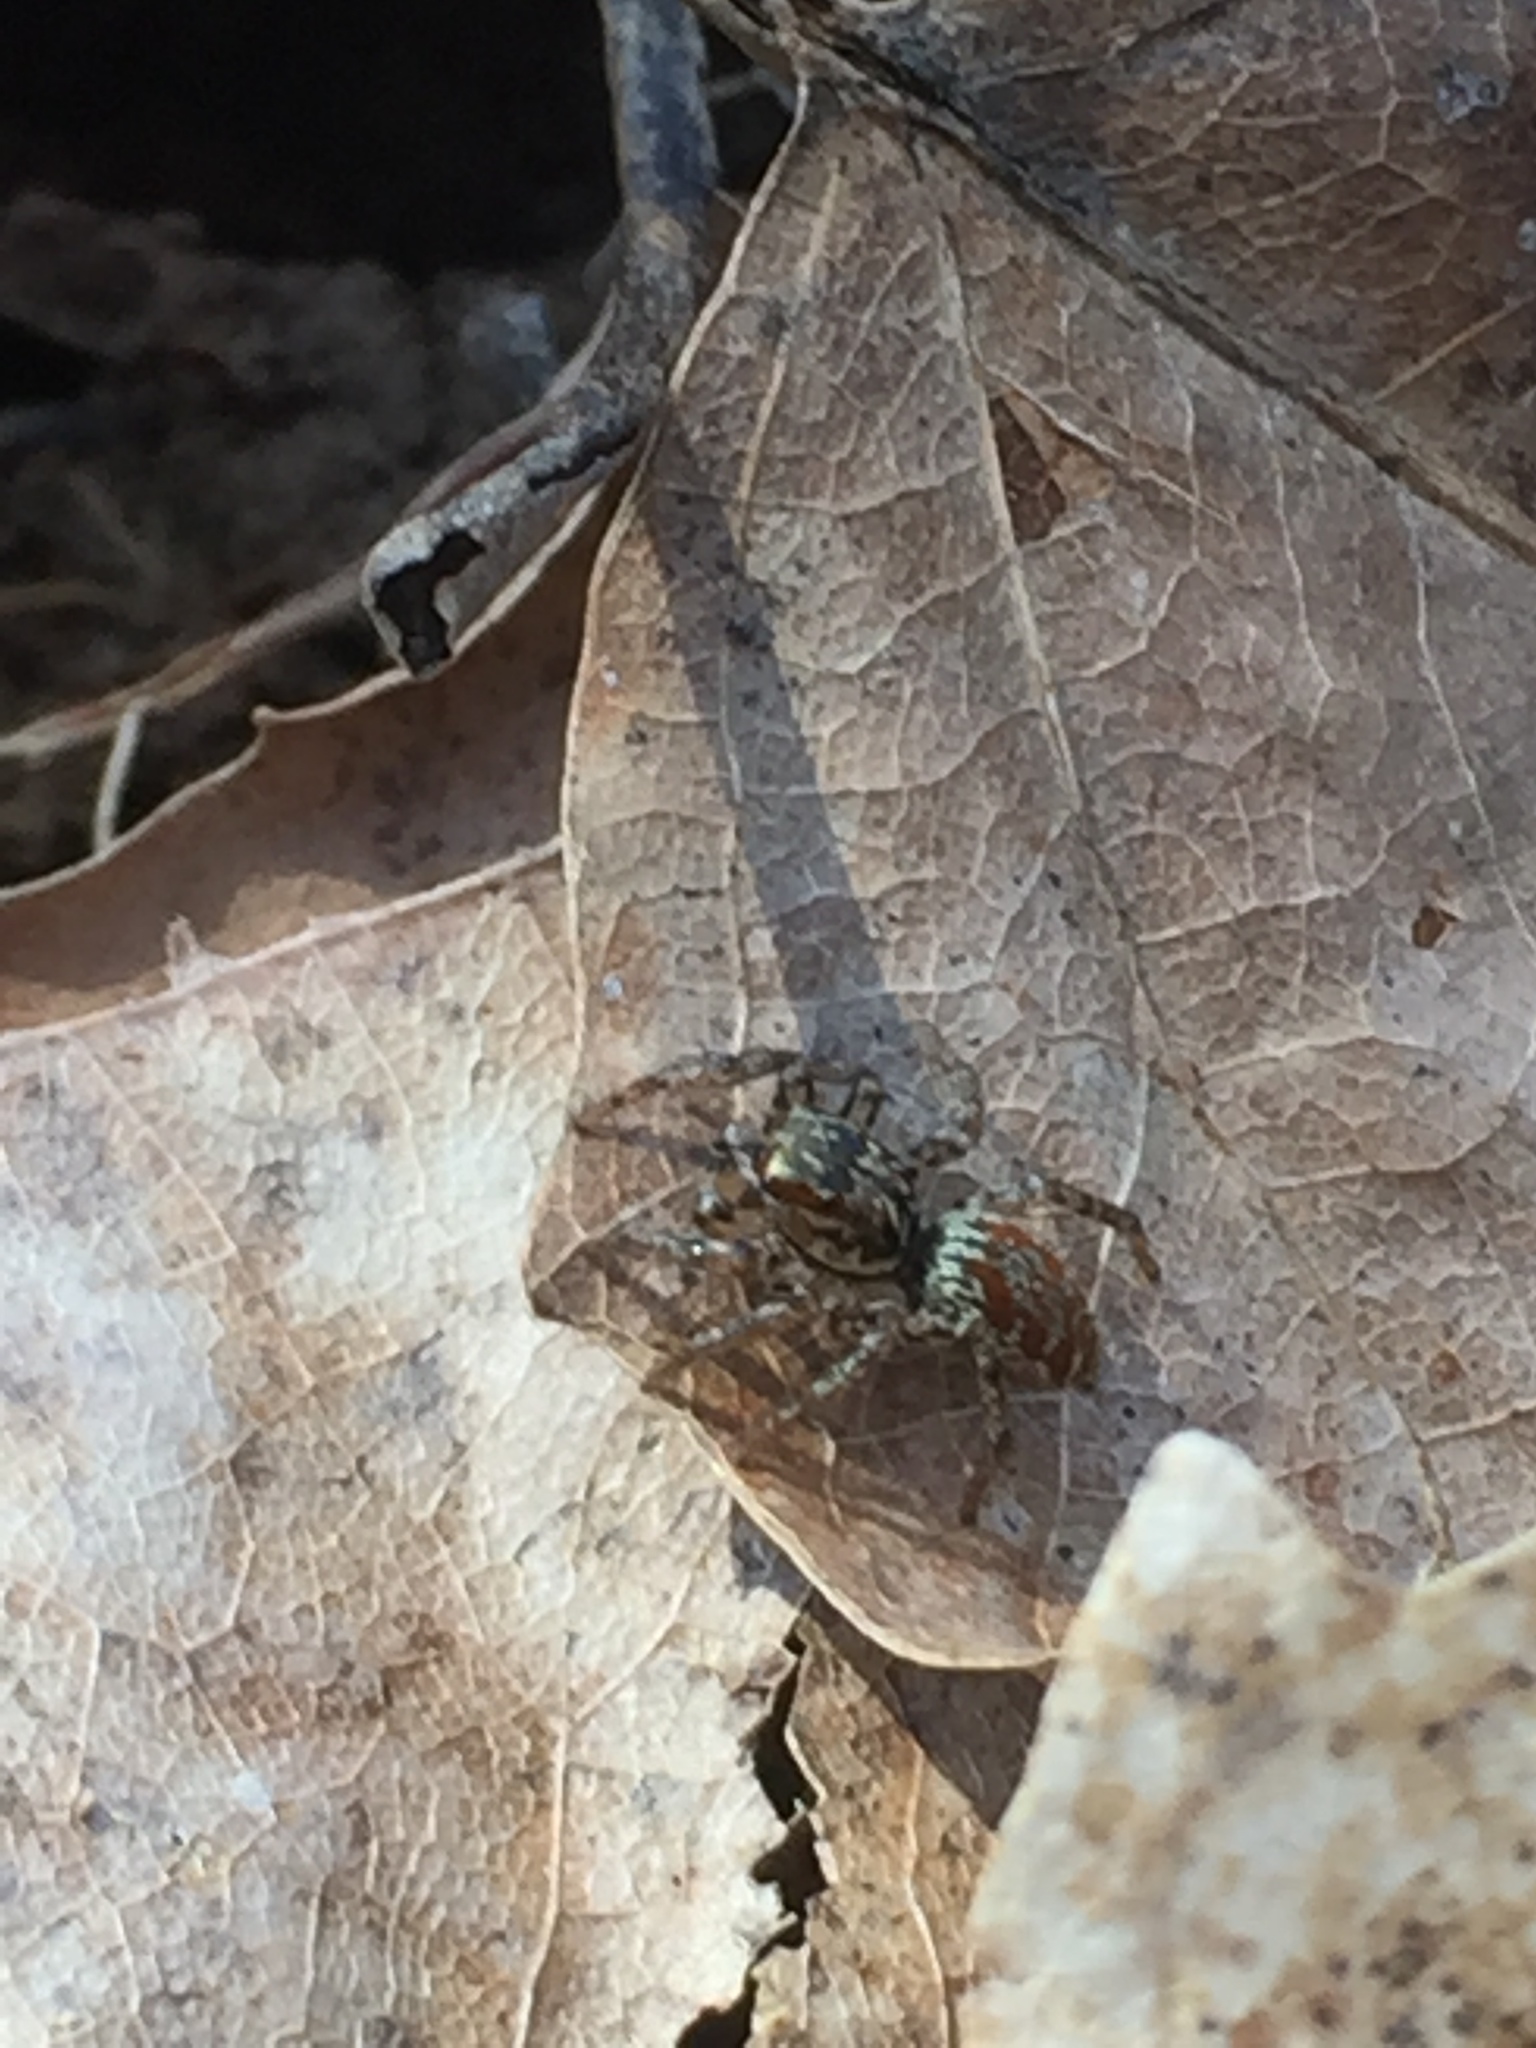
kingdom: Animalia
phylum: Arthropoda
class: Arachnida
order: Araneae
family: Salticidae
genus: Maevia
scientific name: Maevia inclemens
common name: Dimorphic jumper
